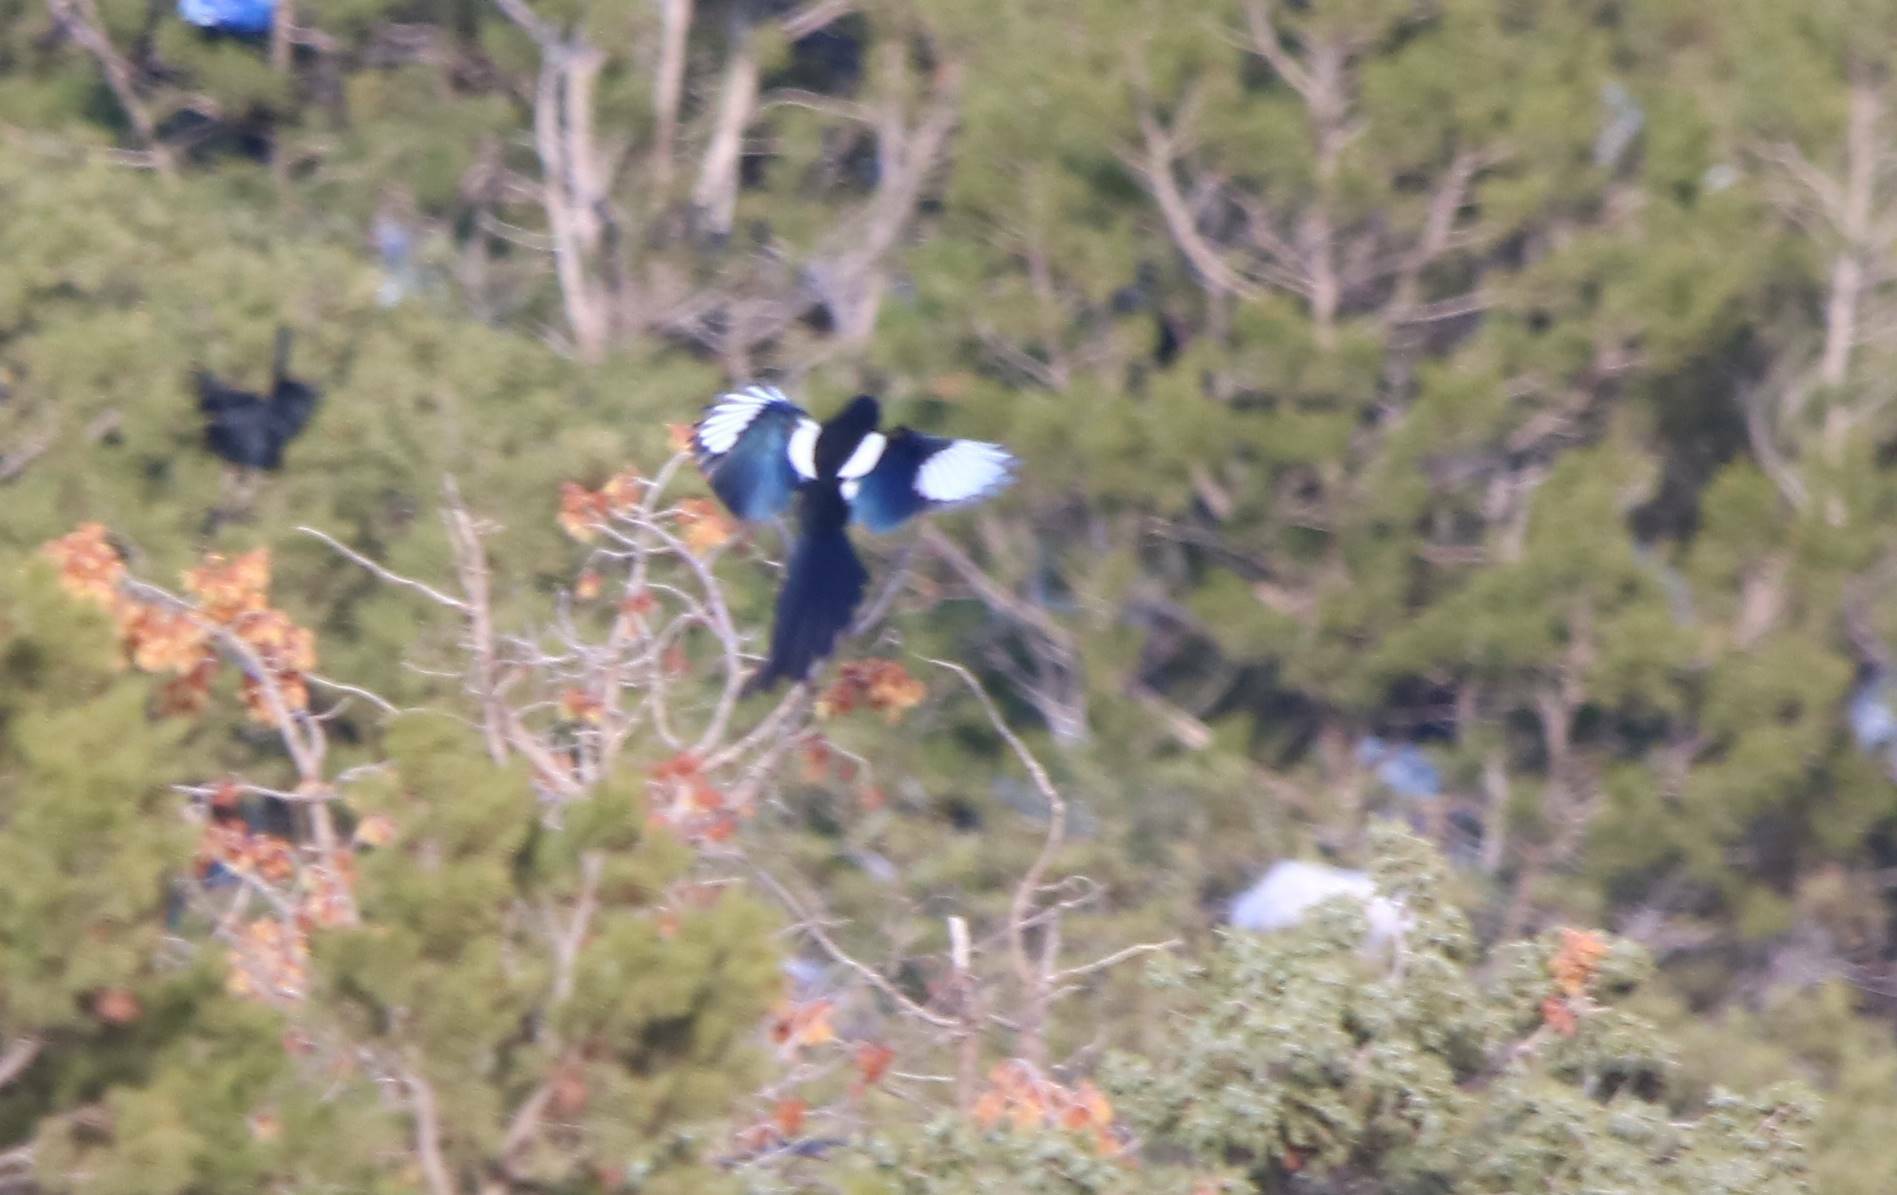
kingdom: Animalia
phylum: Chordata
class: Aves
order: Passeriformes
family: Corvidae
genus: Pica
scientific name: Pica mauritanica
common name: Maghreb magpie
